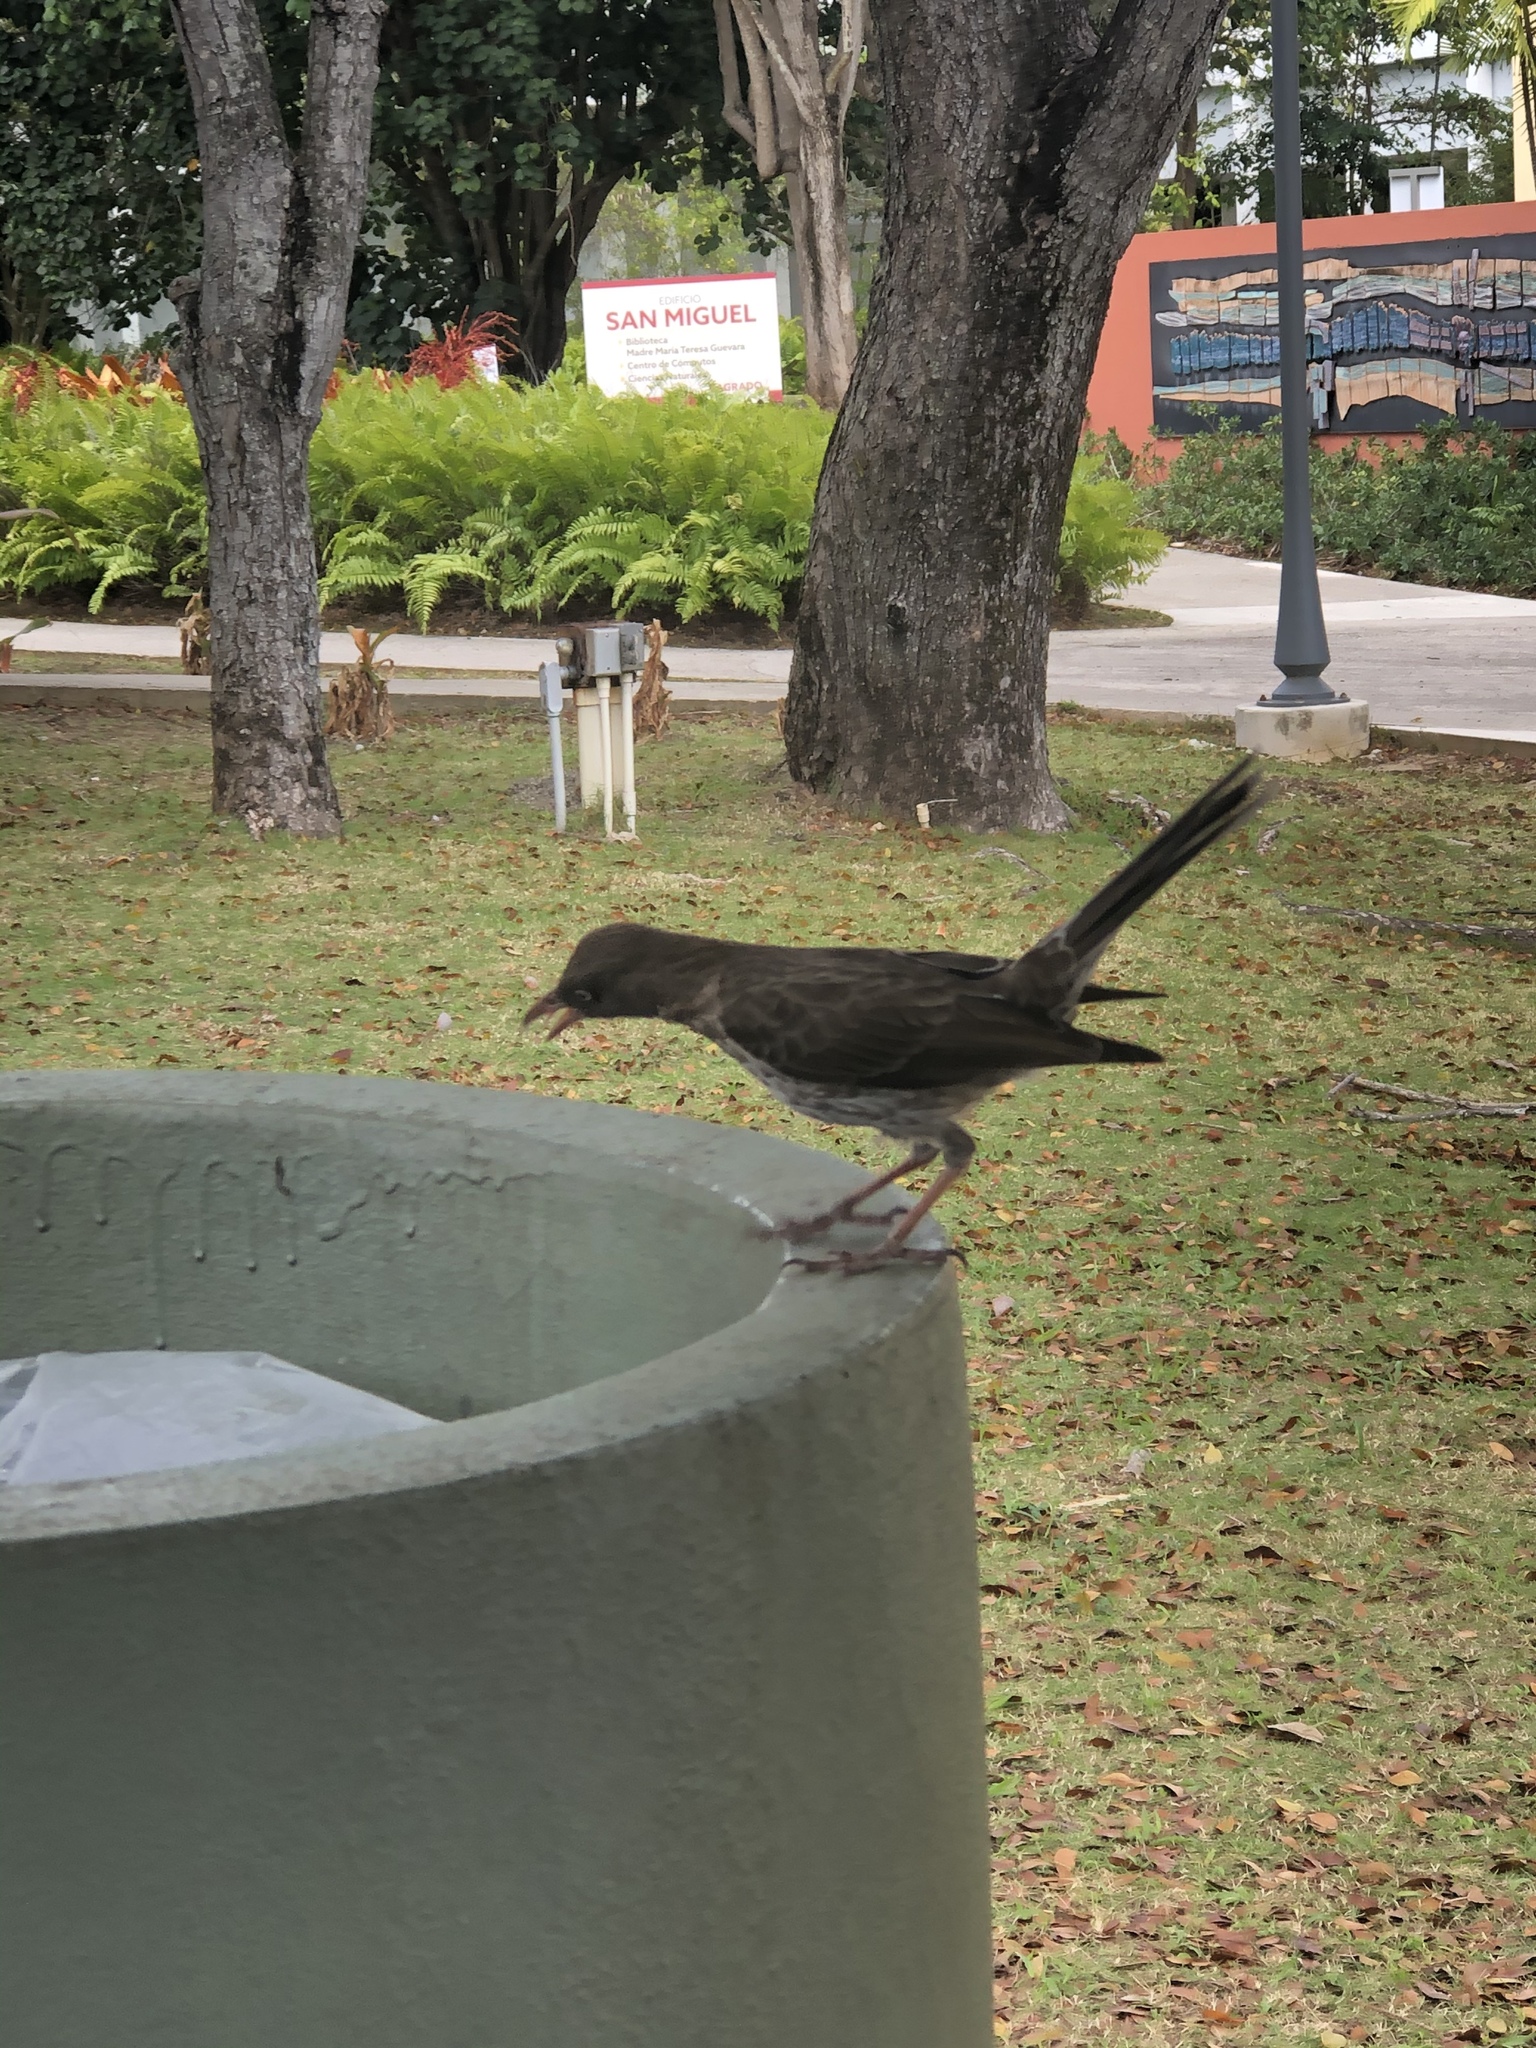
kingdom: Animalia
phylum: Chordata
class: Aves
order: Passeriformes
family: Mimidae
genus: Margarops
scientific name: Margarops fuscatus
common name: Pearly-eyed thrasher
